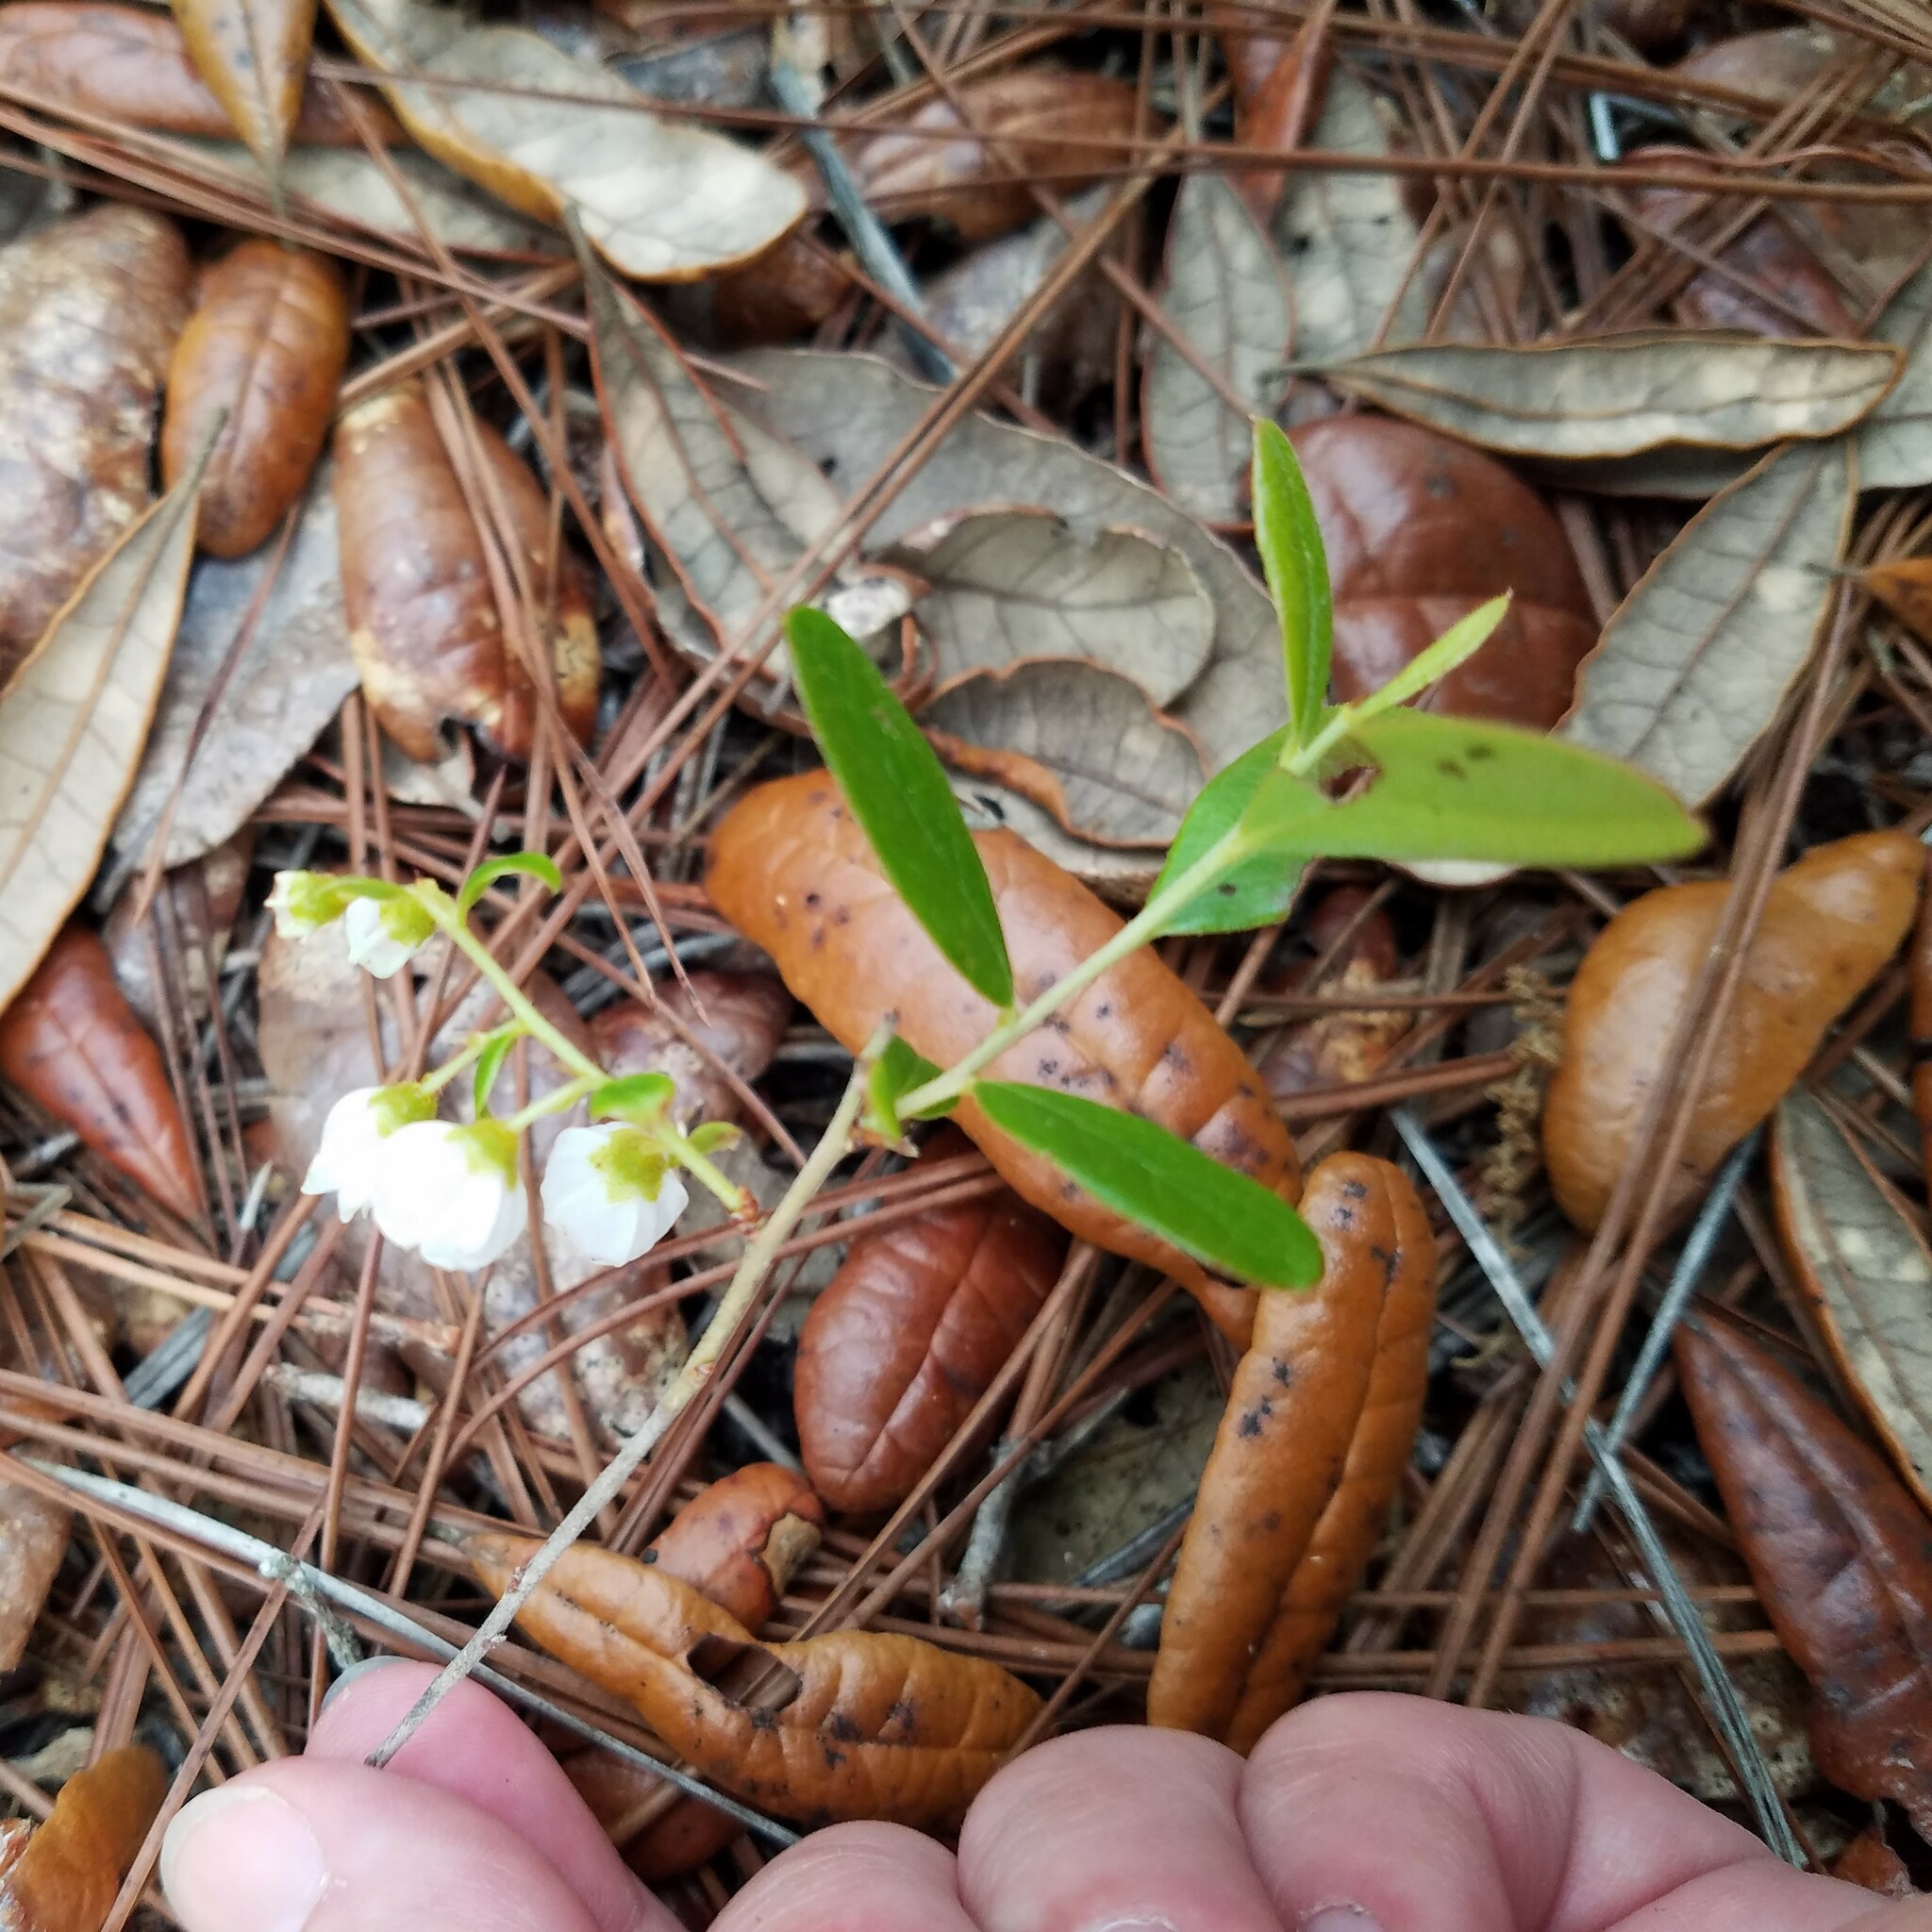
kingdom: Plantae
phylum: Tracheophyta
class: Magnoliopsida
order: Ericales
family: Ericaceae
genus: Gaylussacia
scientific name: Gaylussacia dumosa
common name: Dwarf huckleberry
